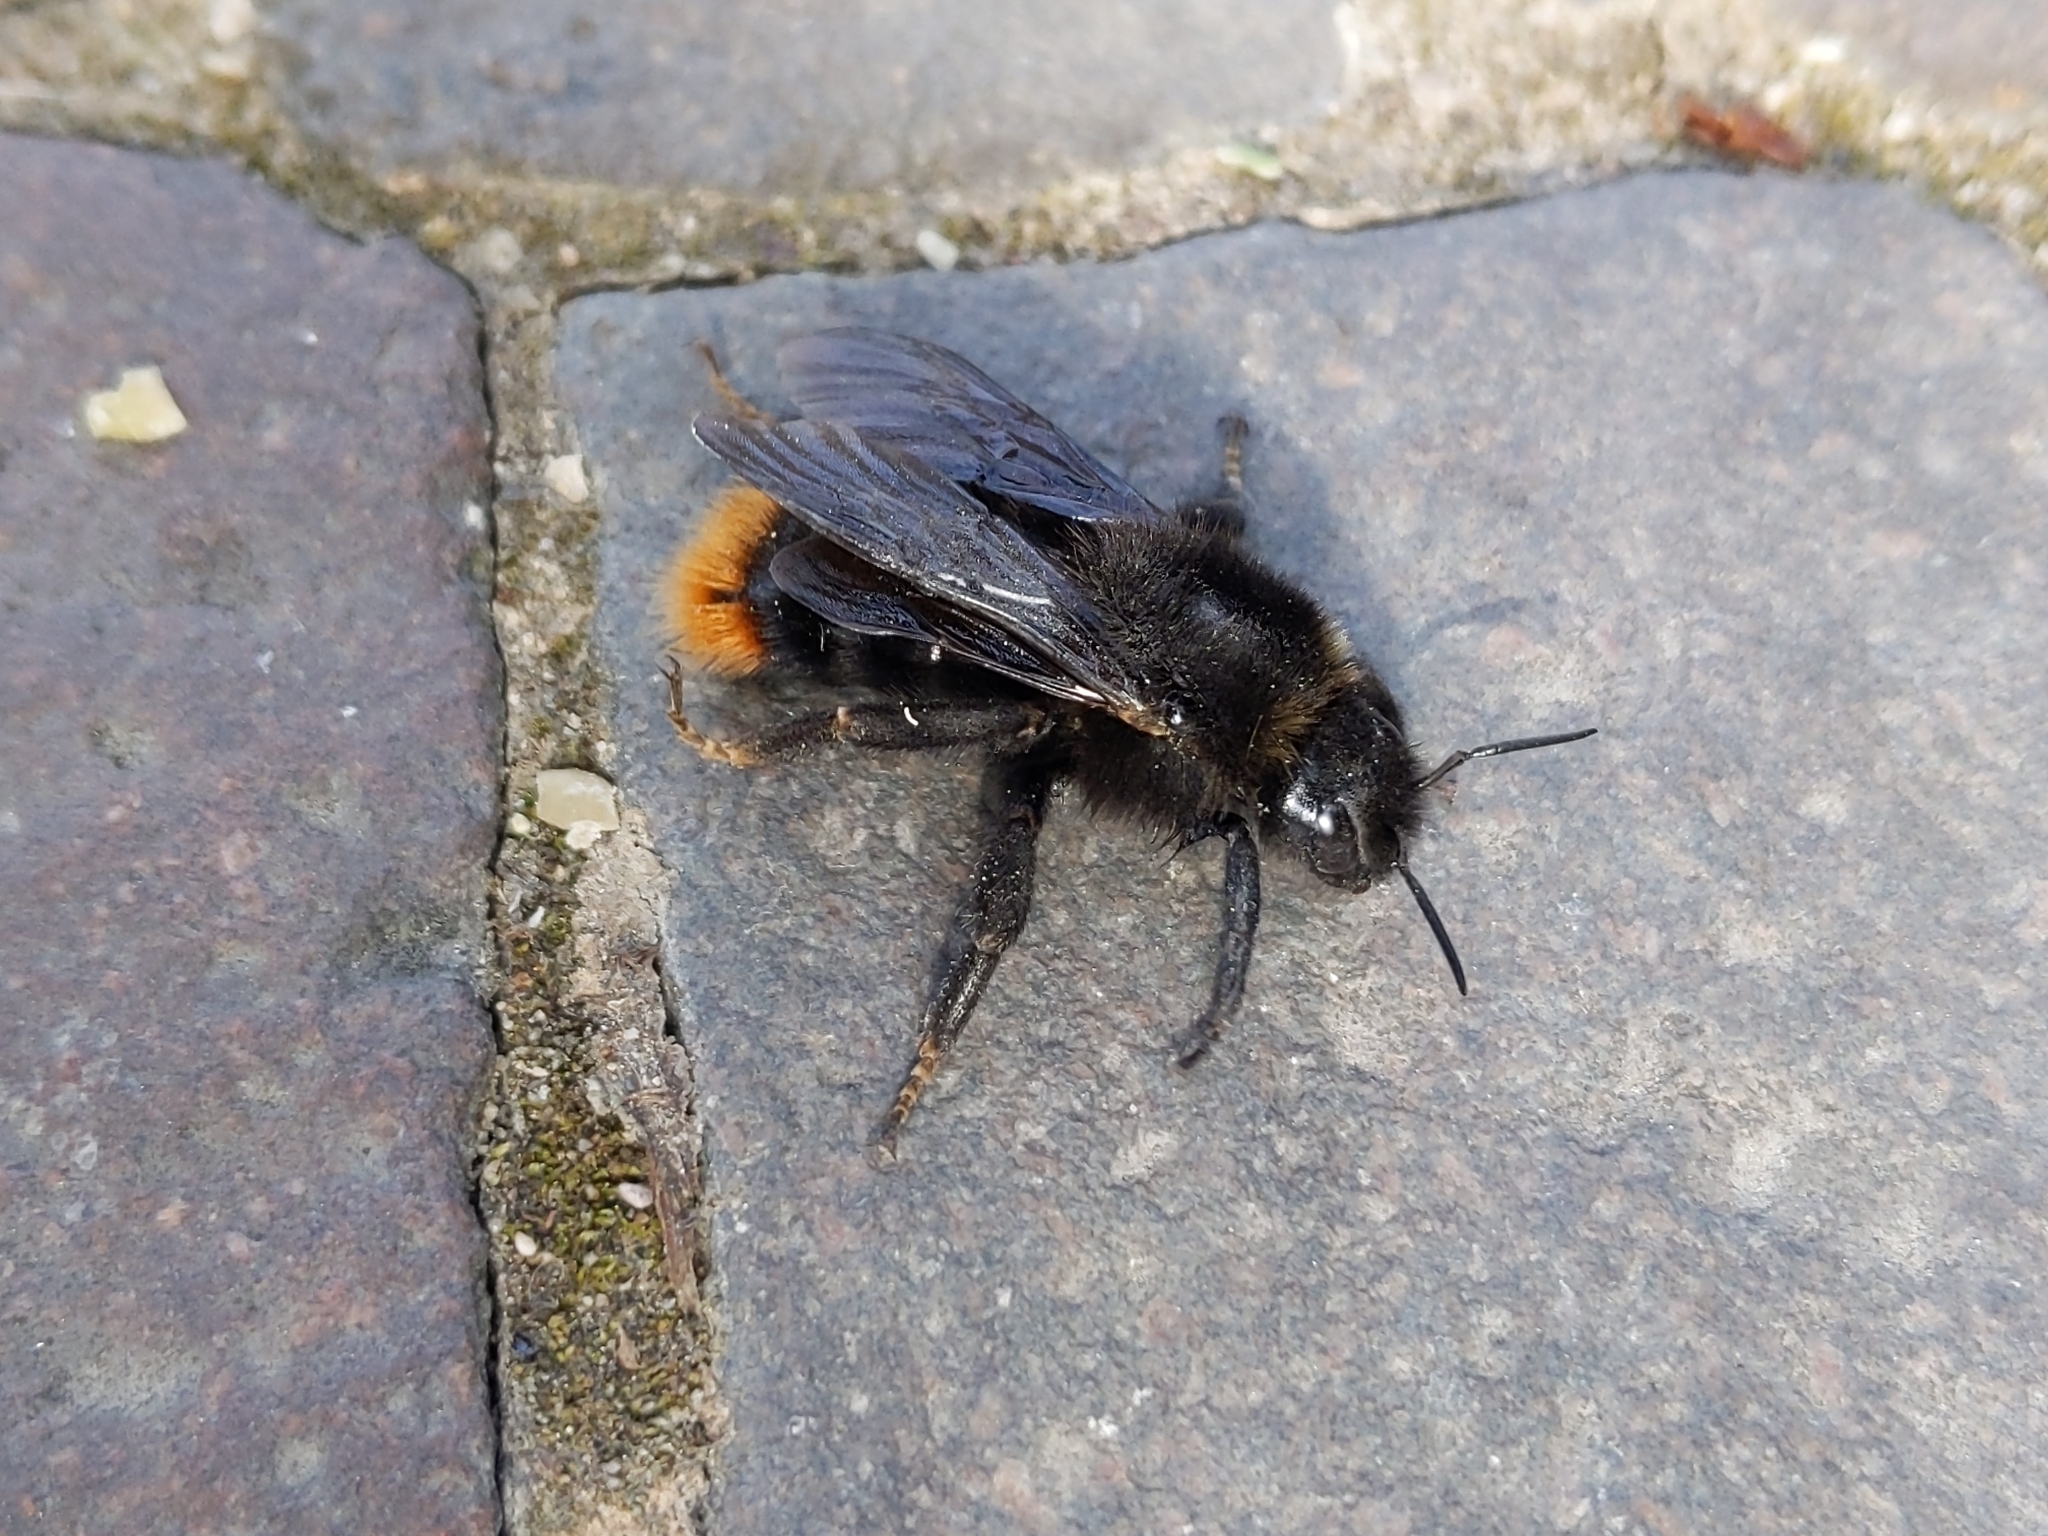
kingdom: Animalia
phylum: Arthropoda
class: Insecta
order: Hymenoptera
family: Apidae
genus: Bombus
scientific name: Bombus rupestris
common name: Hill cuckoo-bee
